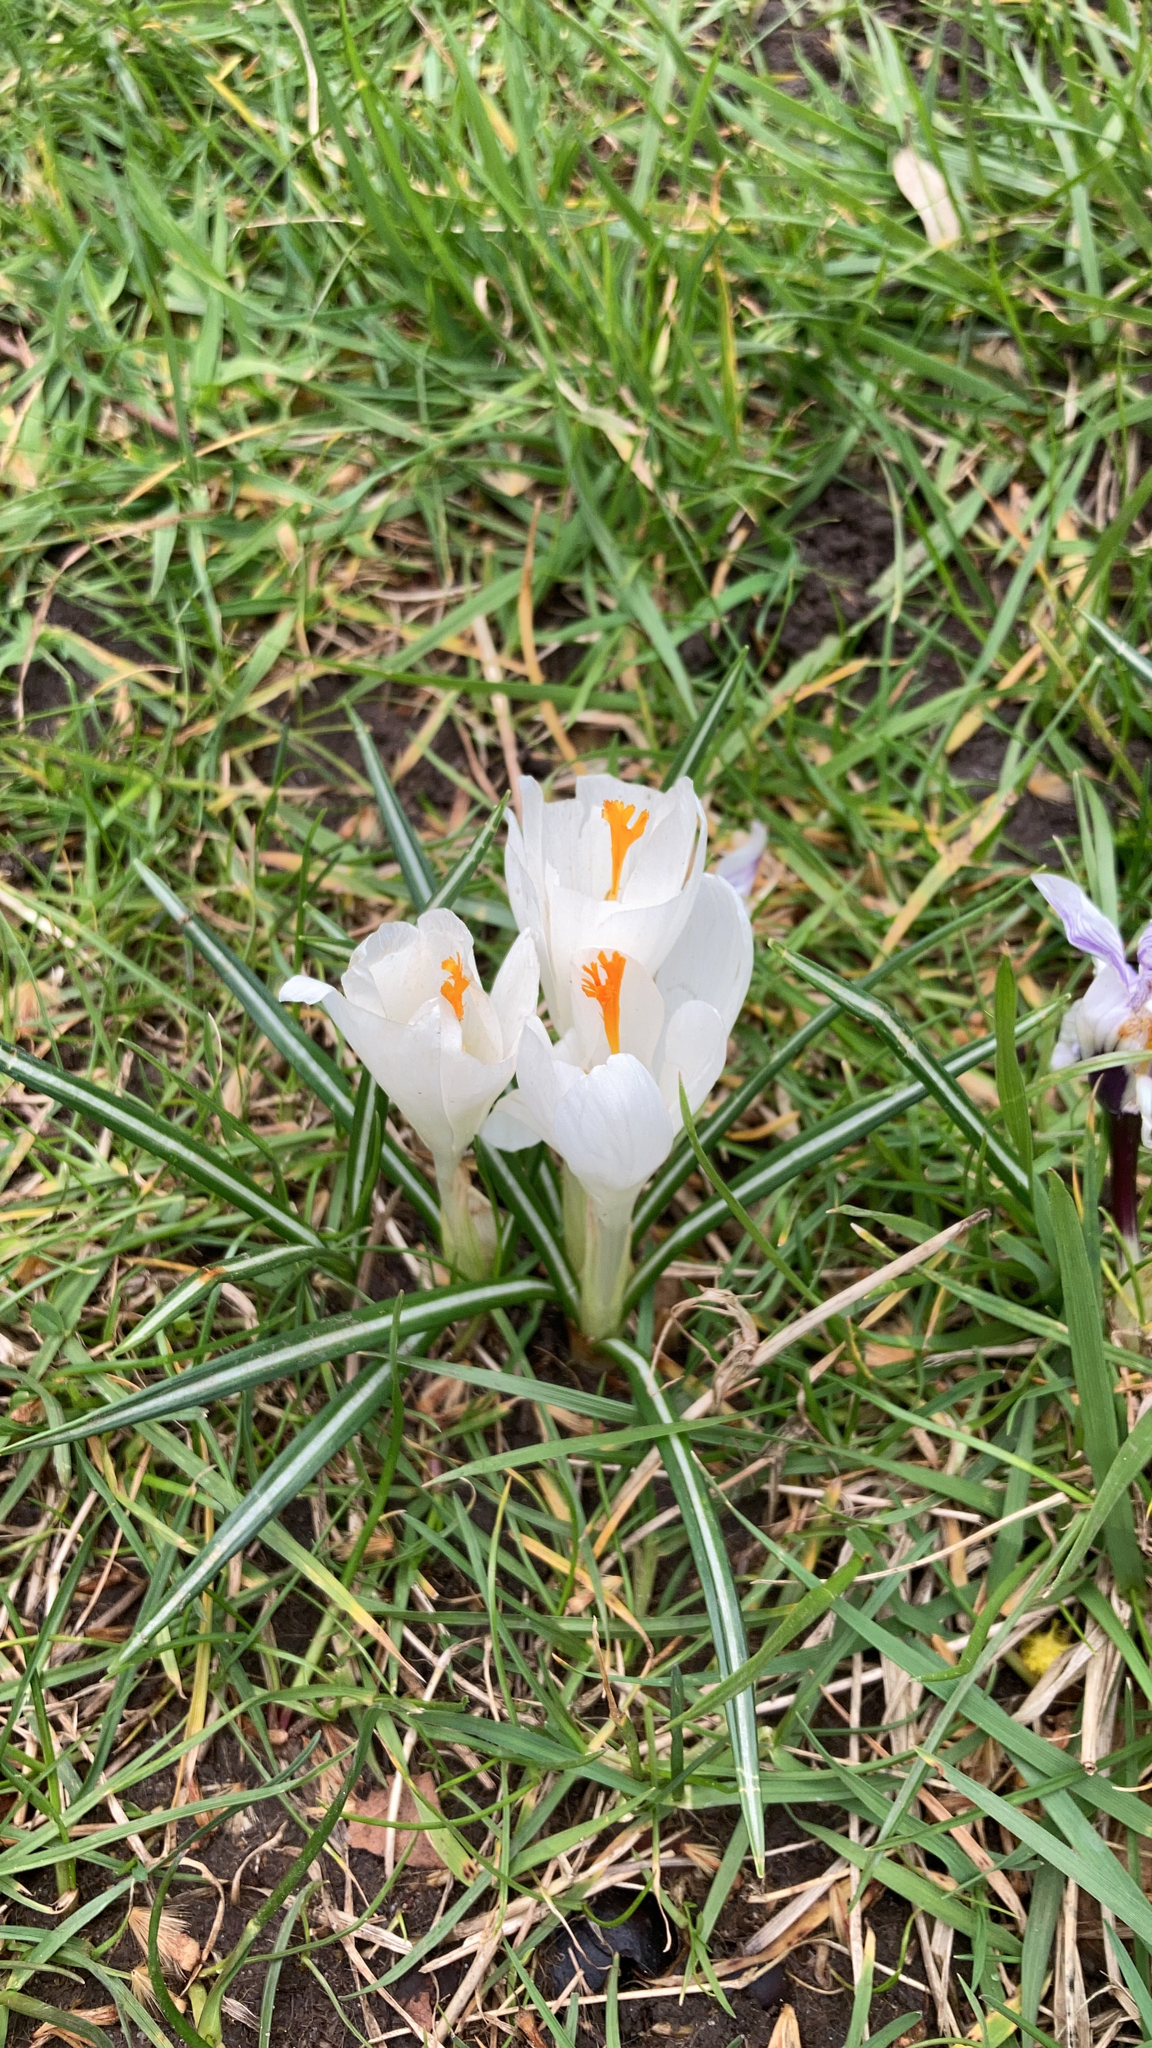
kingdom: Plantae
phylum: Tracheophyta
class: Liliopsida
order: Asparagales
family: Iridaceae
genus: Crocus
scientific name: Crocus
